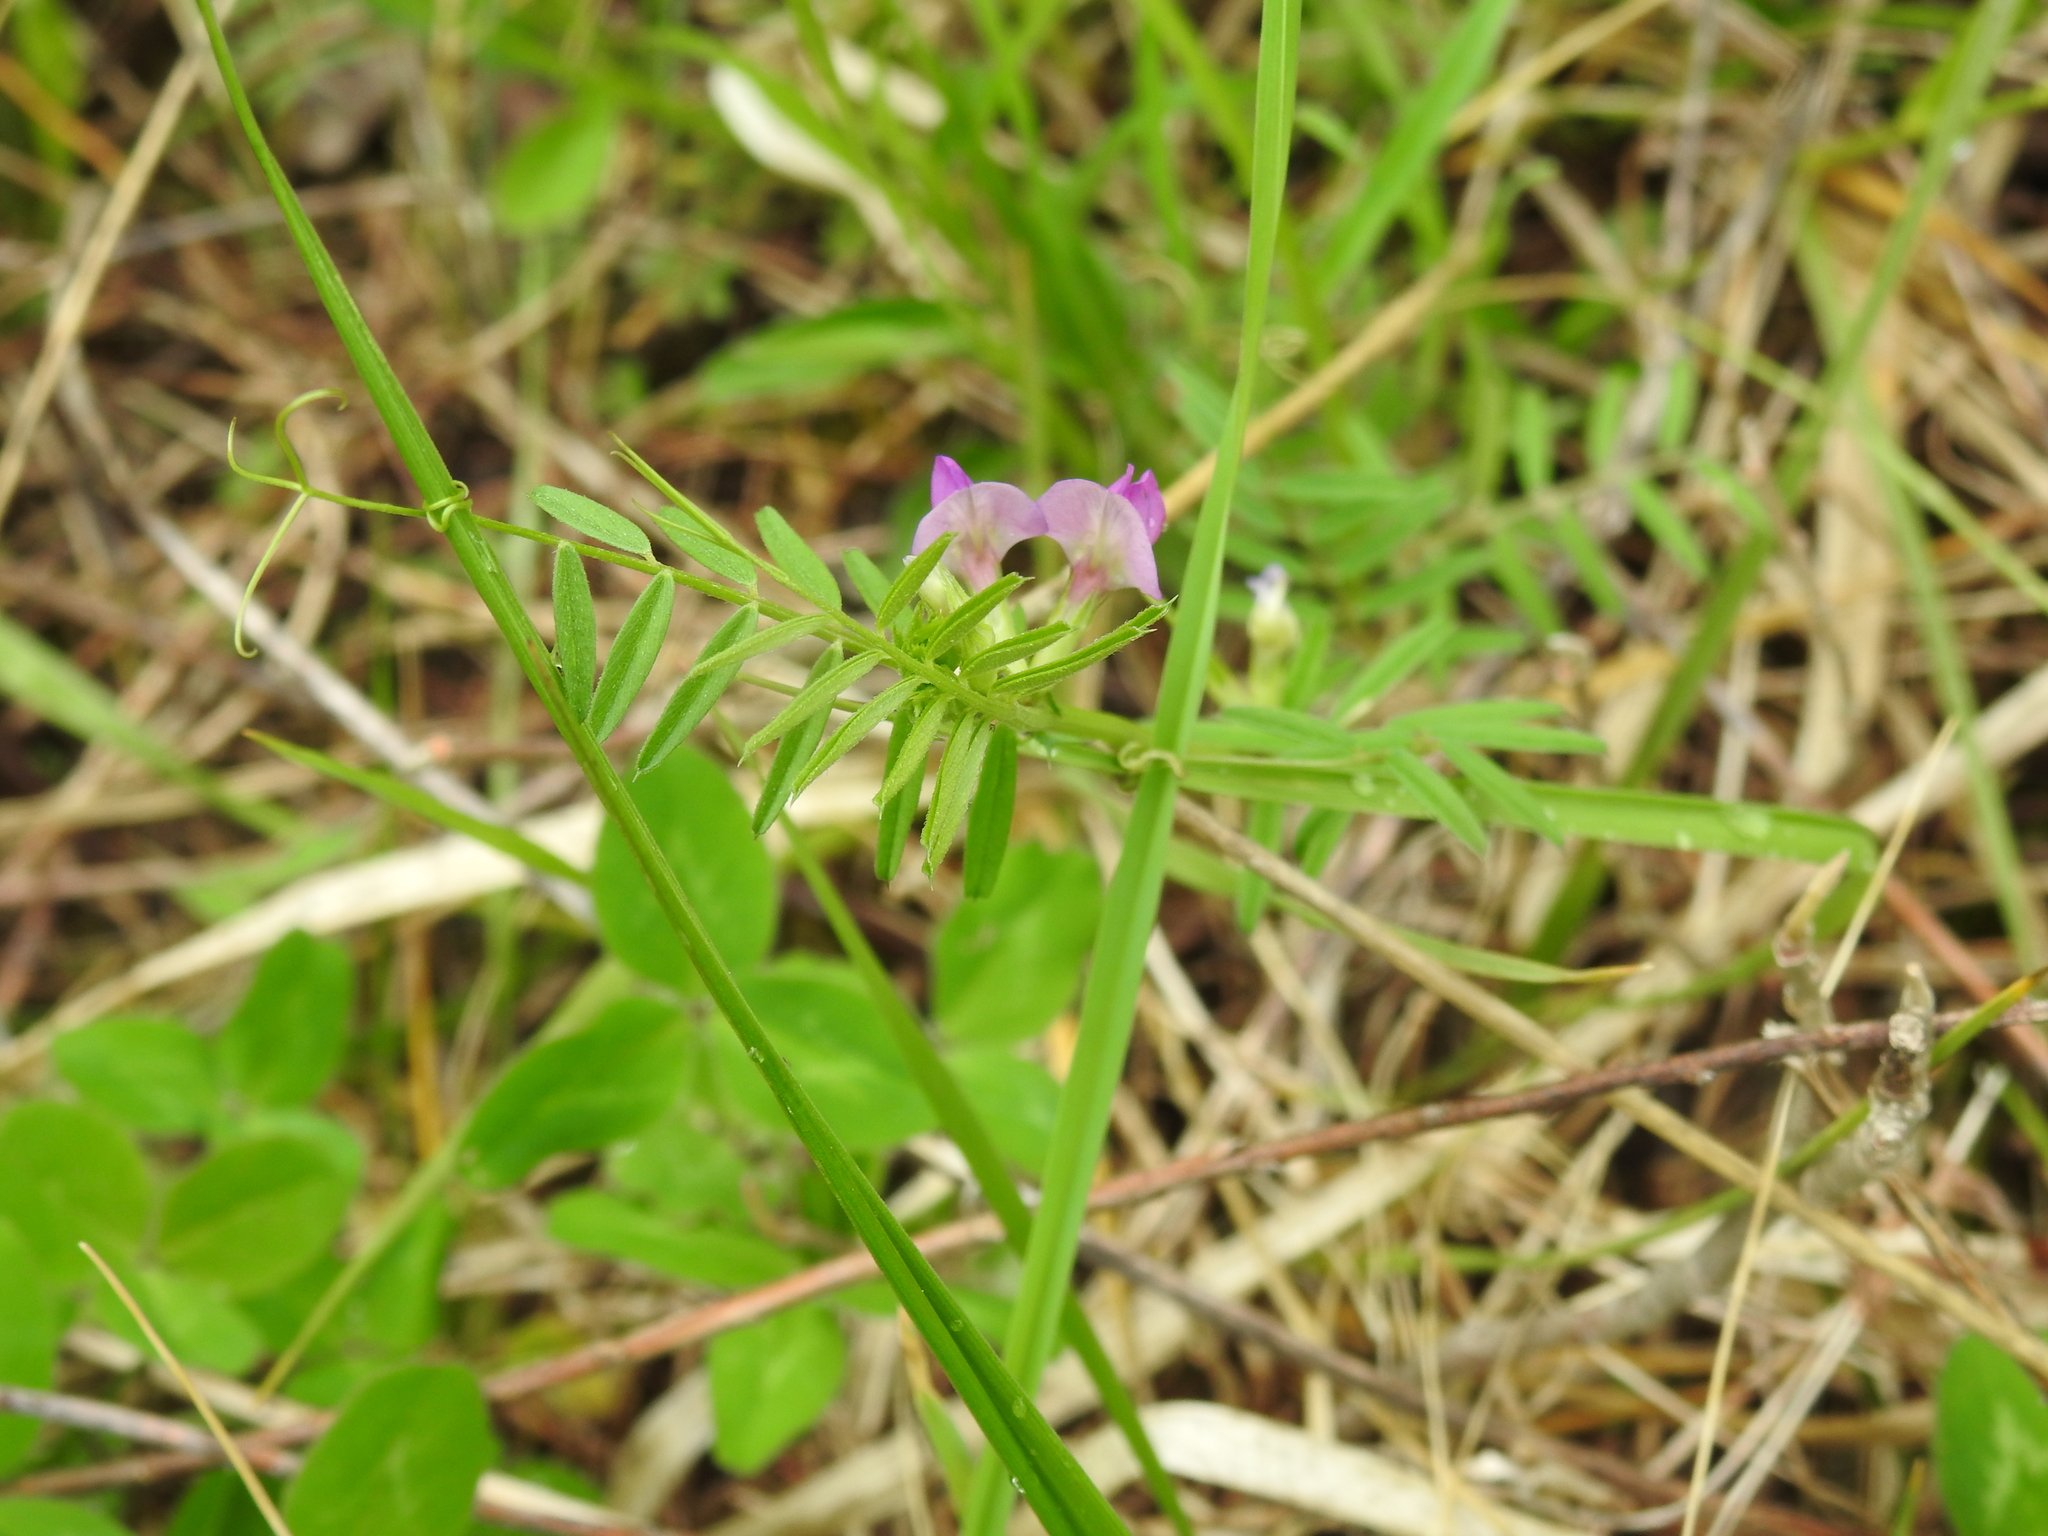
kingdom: Plantae
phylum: Tracheophyta
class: Magnoliopsida
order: Fabales
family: Fabaceae
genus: Vicia
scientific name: Vicia sativa
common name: Garden vetch
